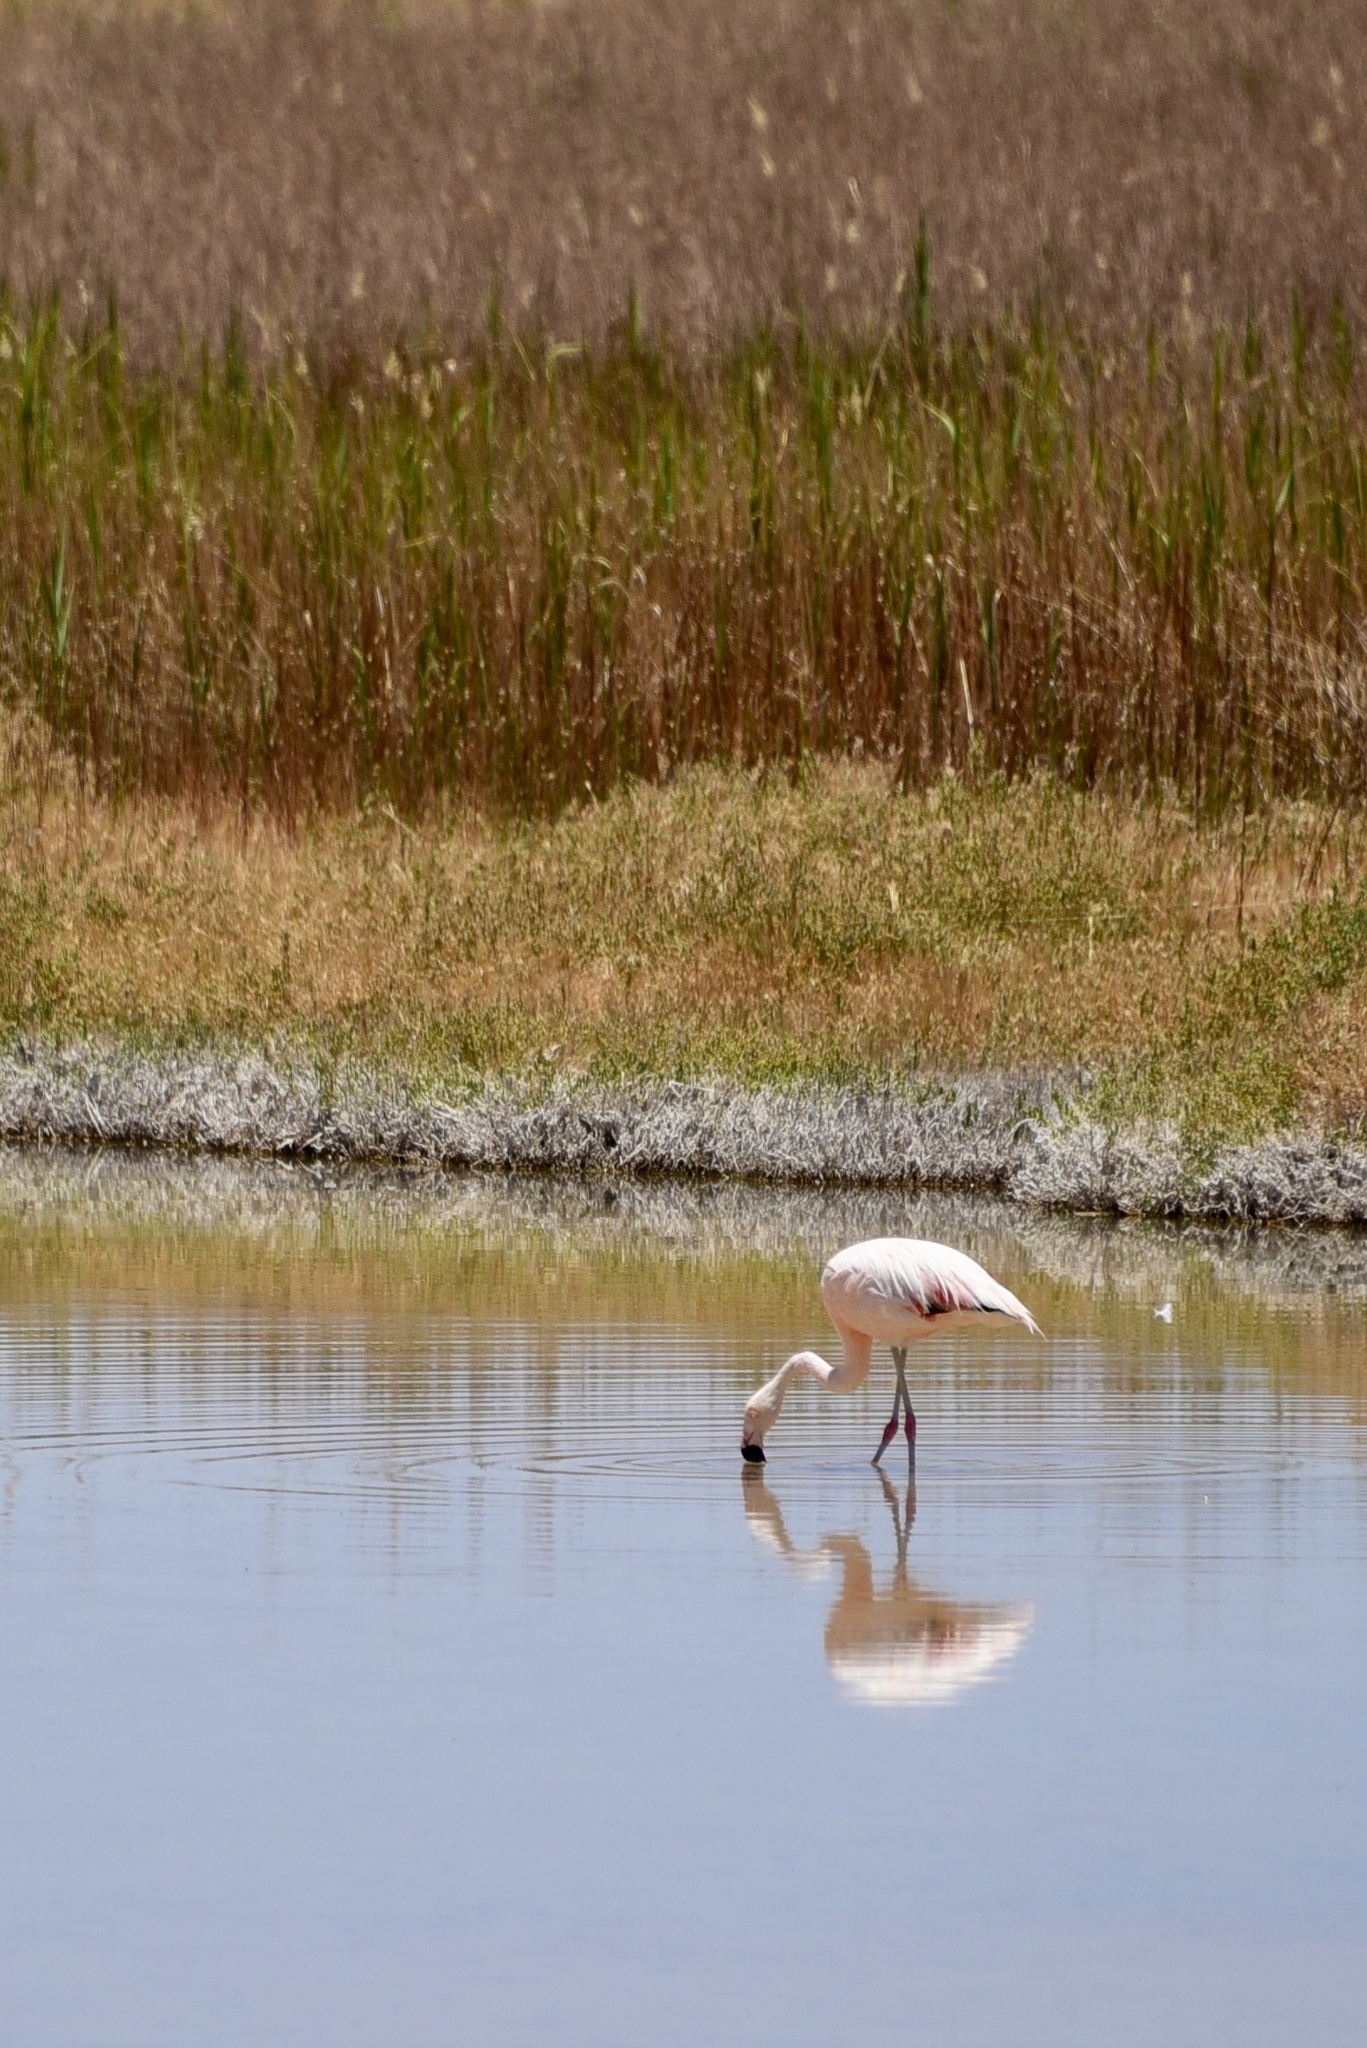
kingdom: Animalia
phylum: Chordata
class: Aves
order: Phoenicopteriformes
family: Phoenicopteridae
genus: Phoenicopterus
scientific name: Phoenicopterus chilensis
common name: Chilean flamingo
